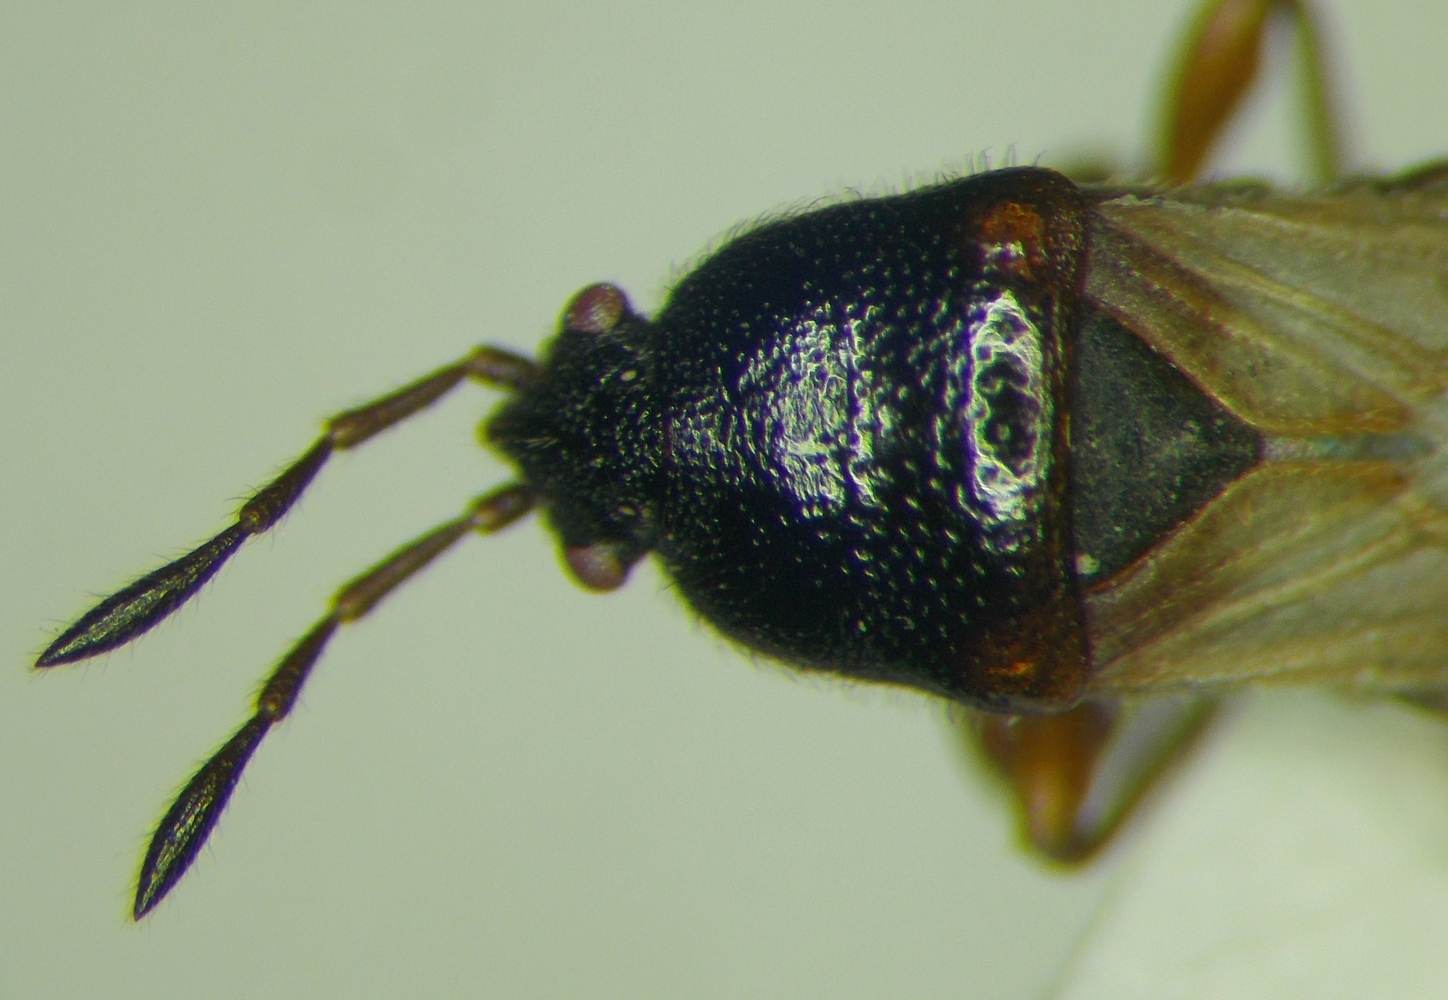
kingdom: Animalia
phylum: Arthropoda
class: Insecta
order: Hemiptera
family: Blissidae
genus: Dimorphopterus
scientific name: Dimorphopterus blissoides
